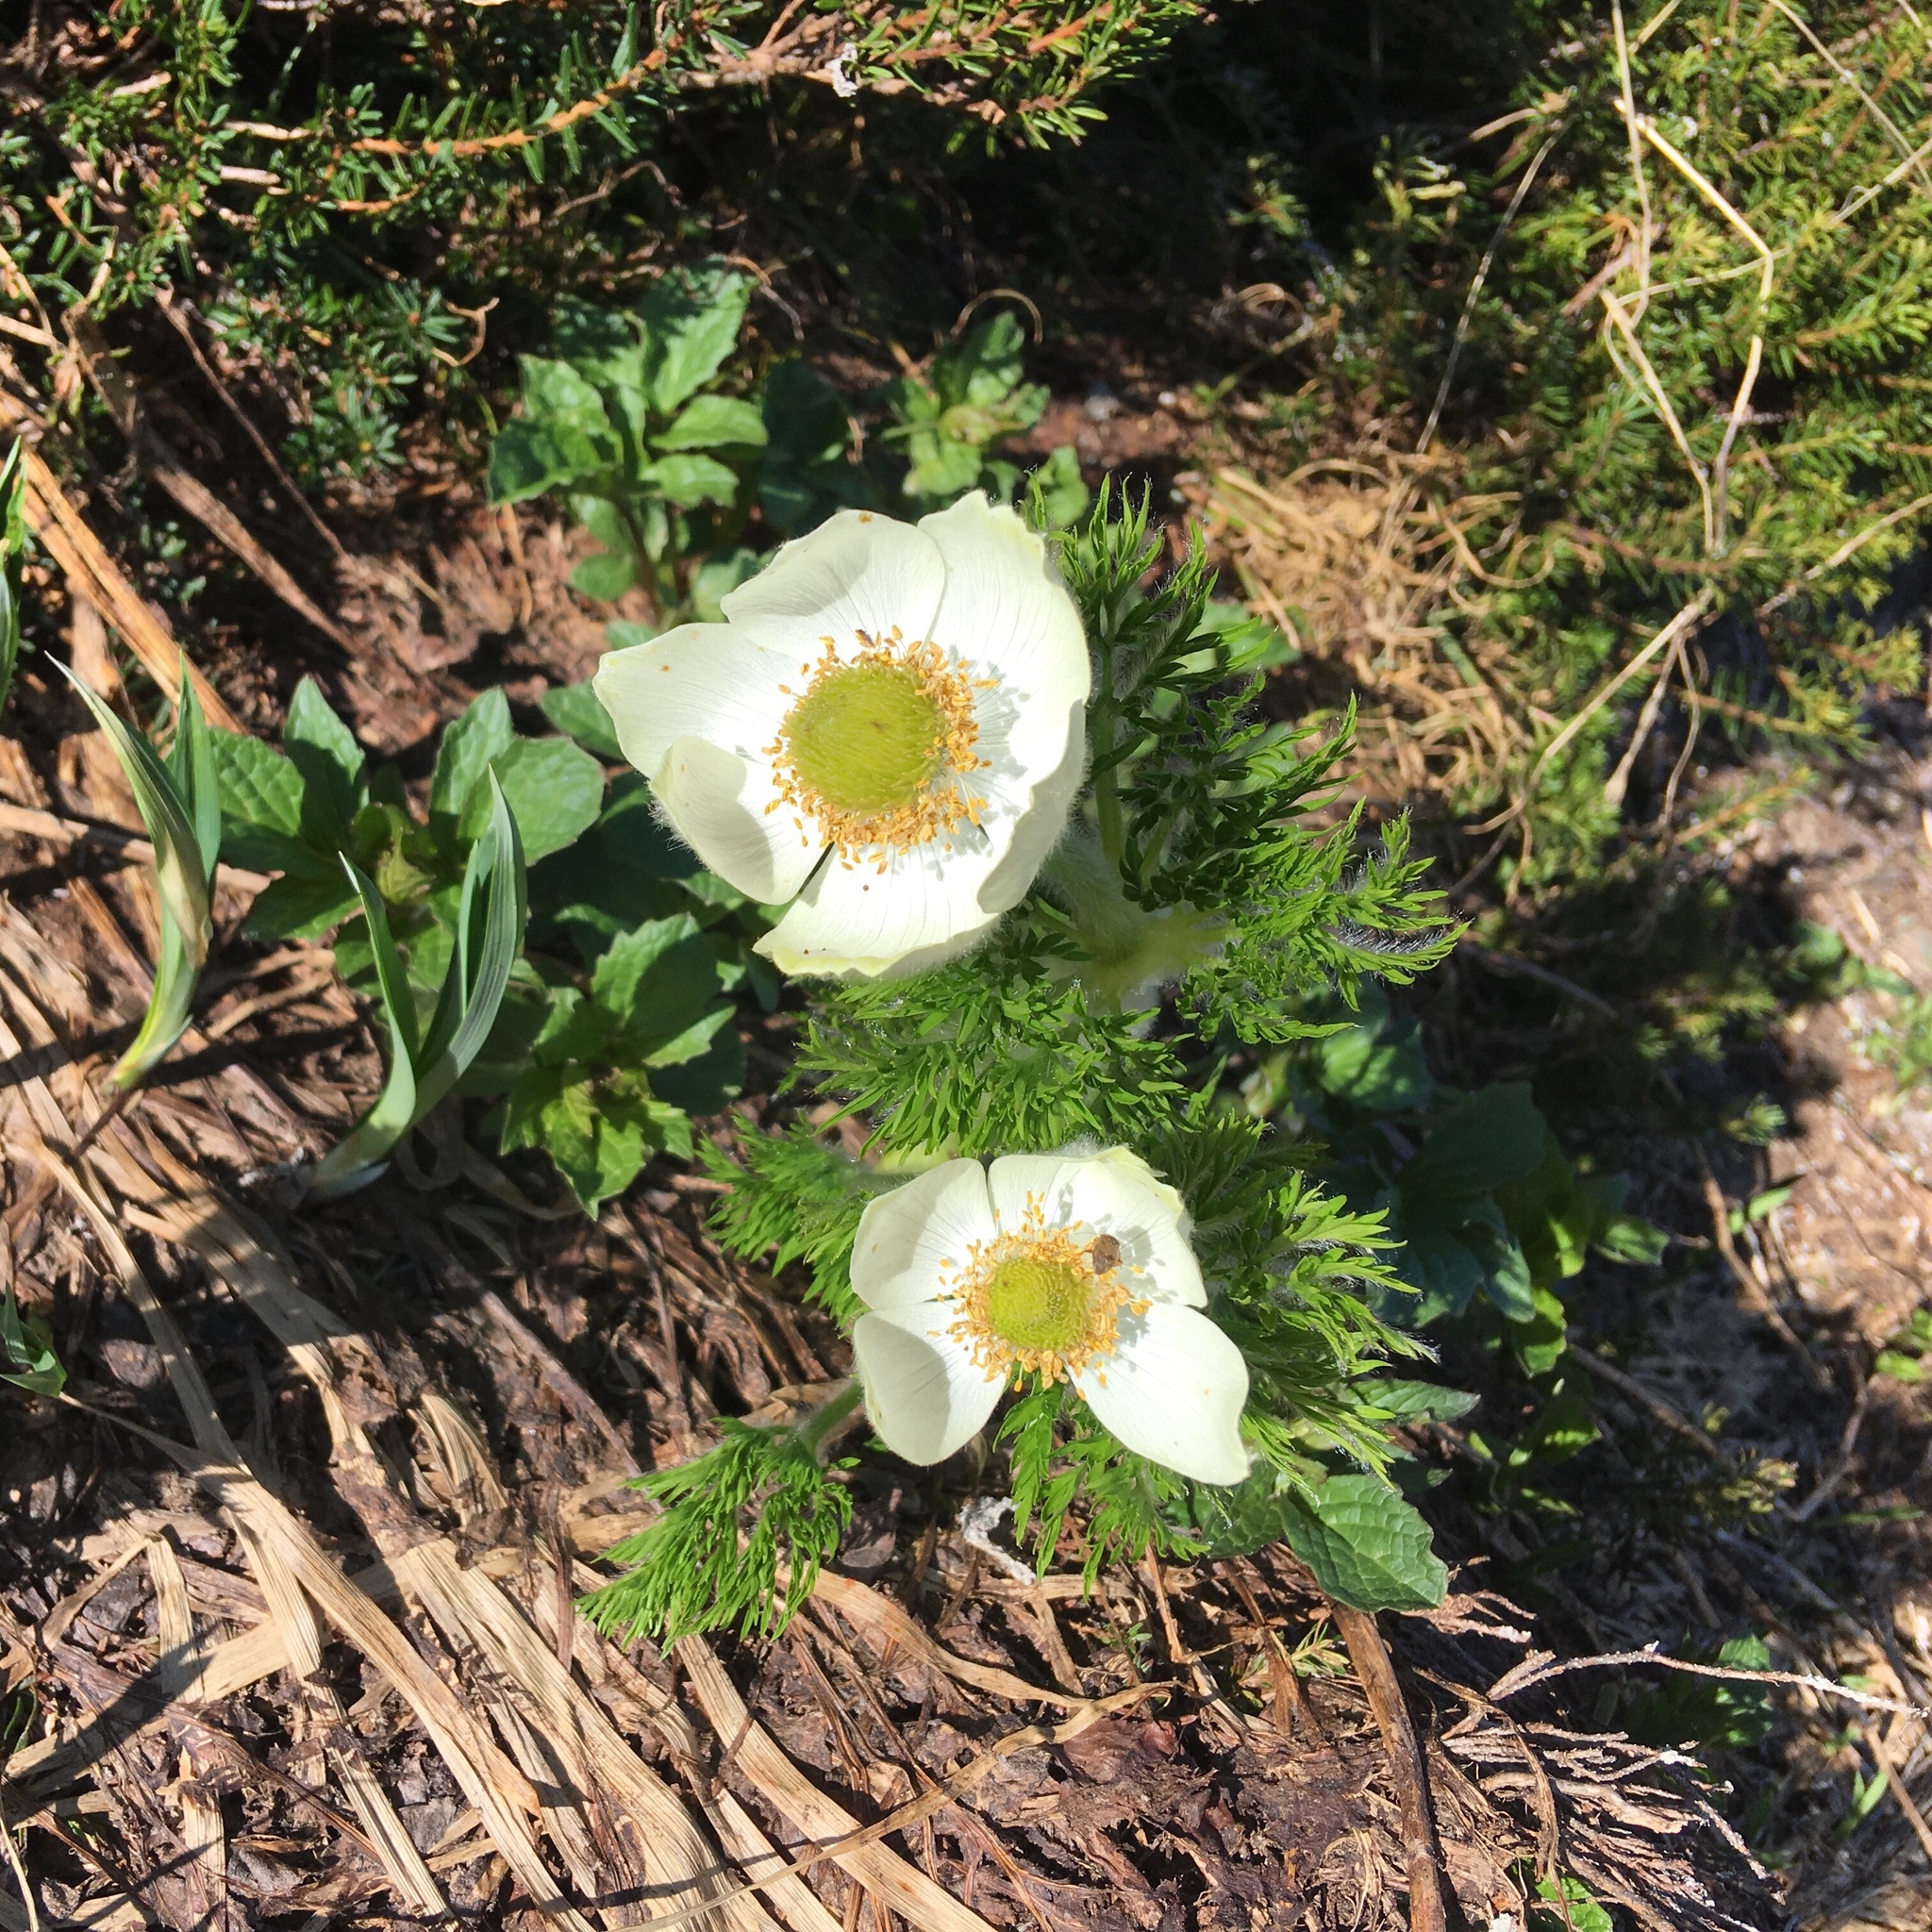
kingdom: Plantae
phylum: Tracheophyta
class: Magnoliopsida
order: Ranunculales
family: Ranunculaceae
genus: Pulsatilla
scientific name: Pulsatilla occidentalis
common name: Mountain pasqueflower
